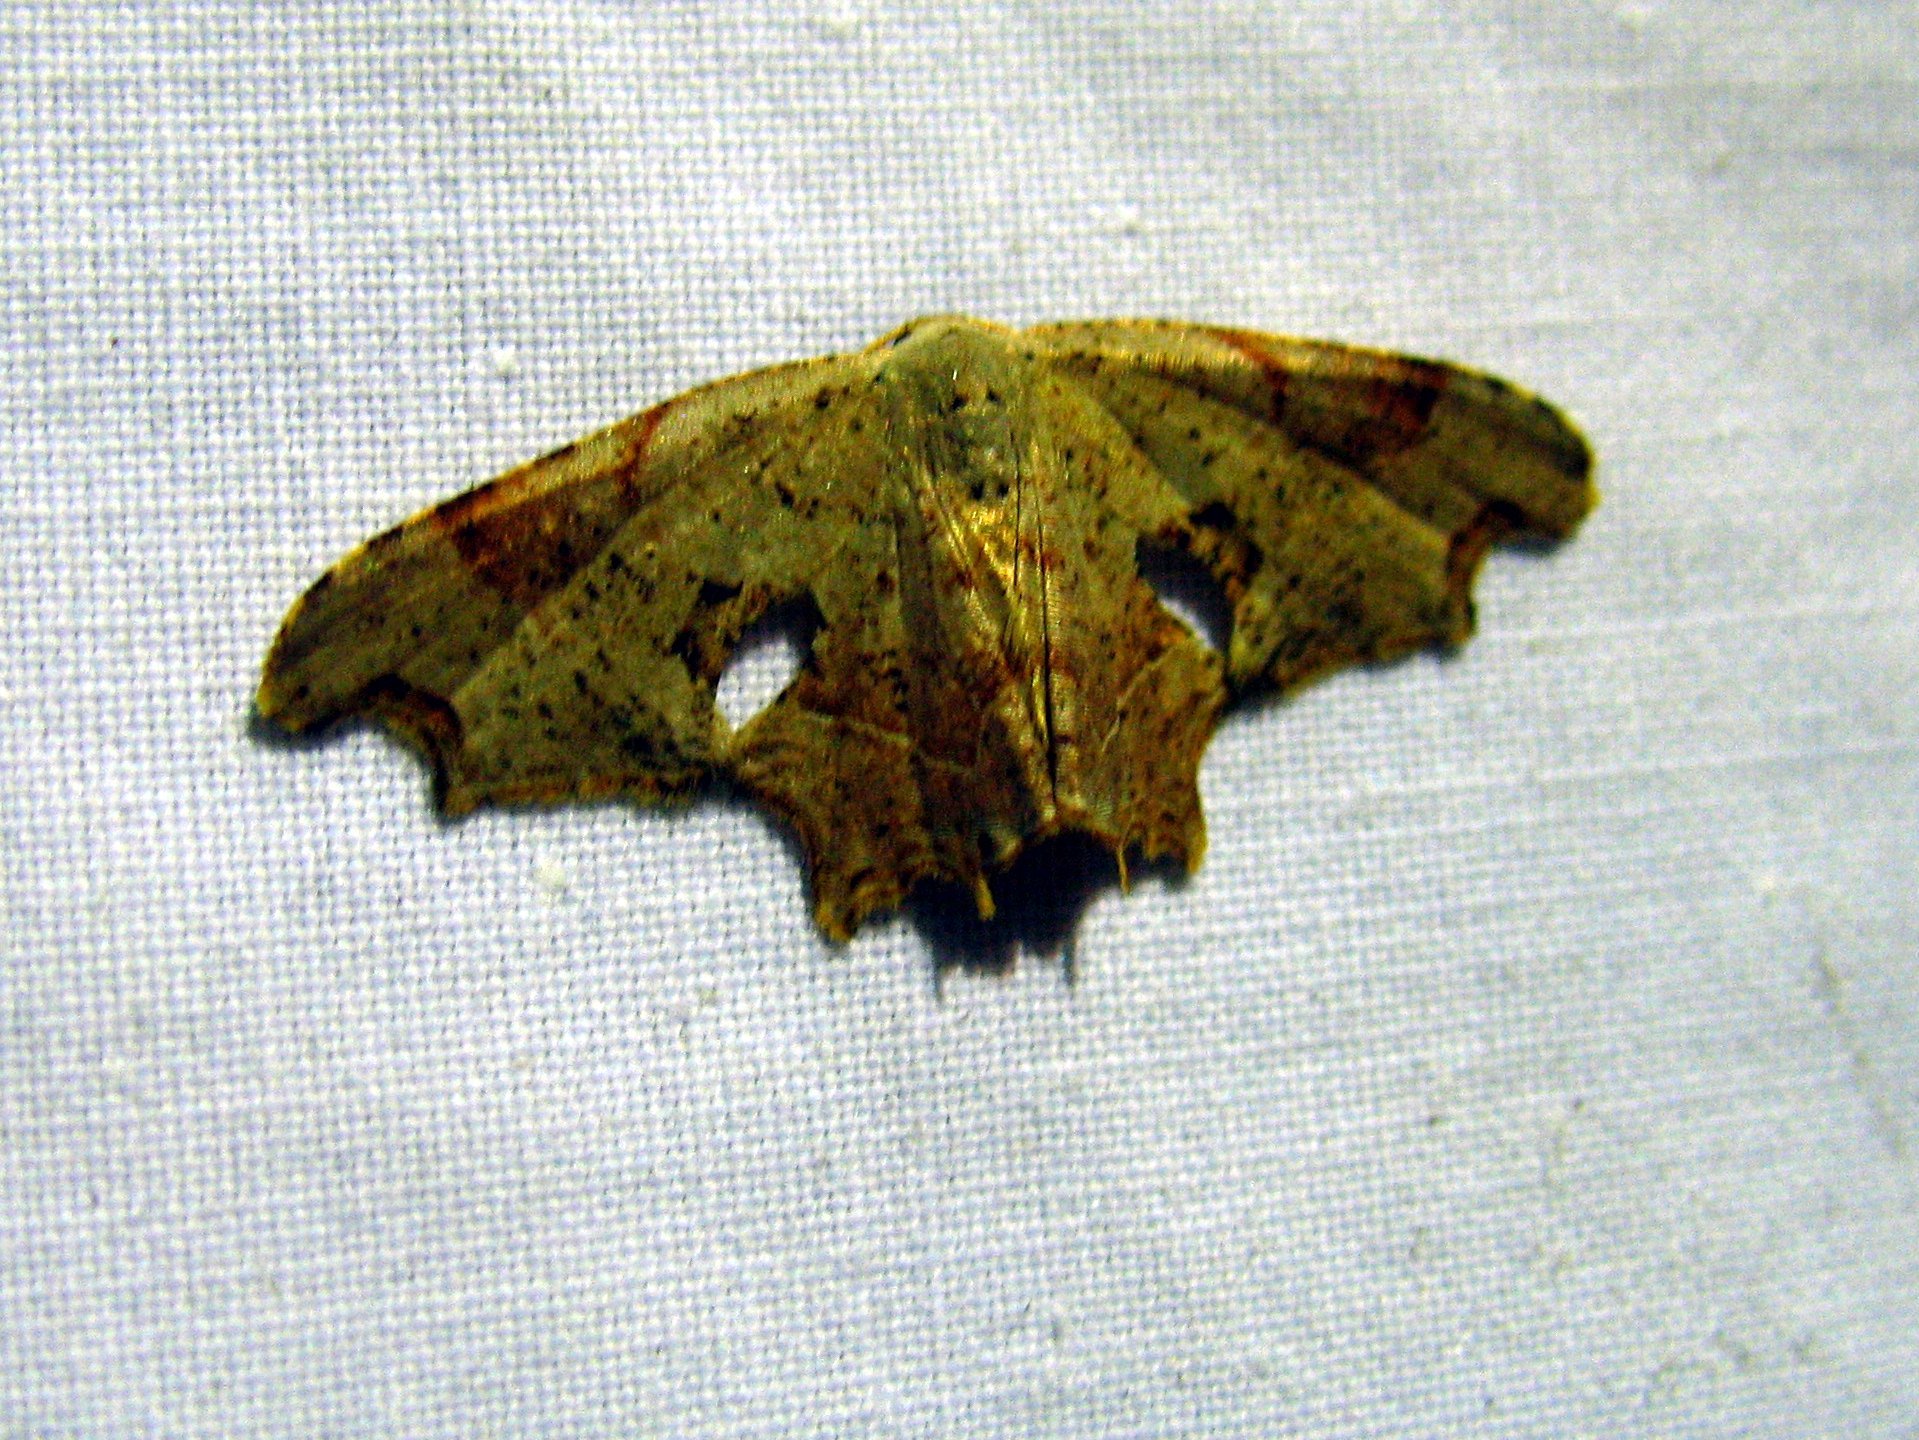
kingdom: Animalia
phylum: Arthropoda
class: Insecta
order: Lepidoptera
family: Uraniidae
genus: Epiplema
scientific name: Epiplema Calledapteryx dryopterata
